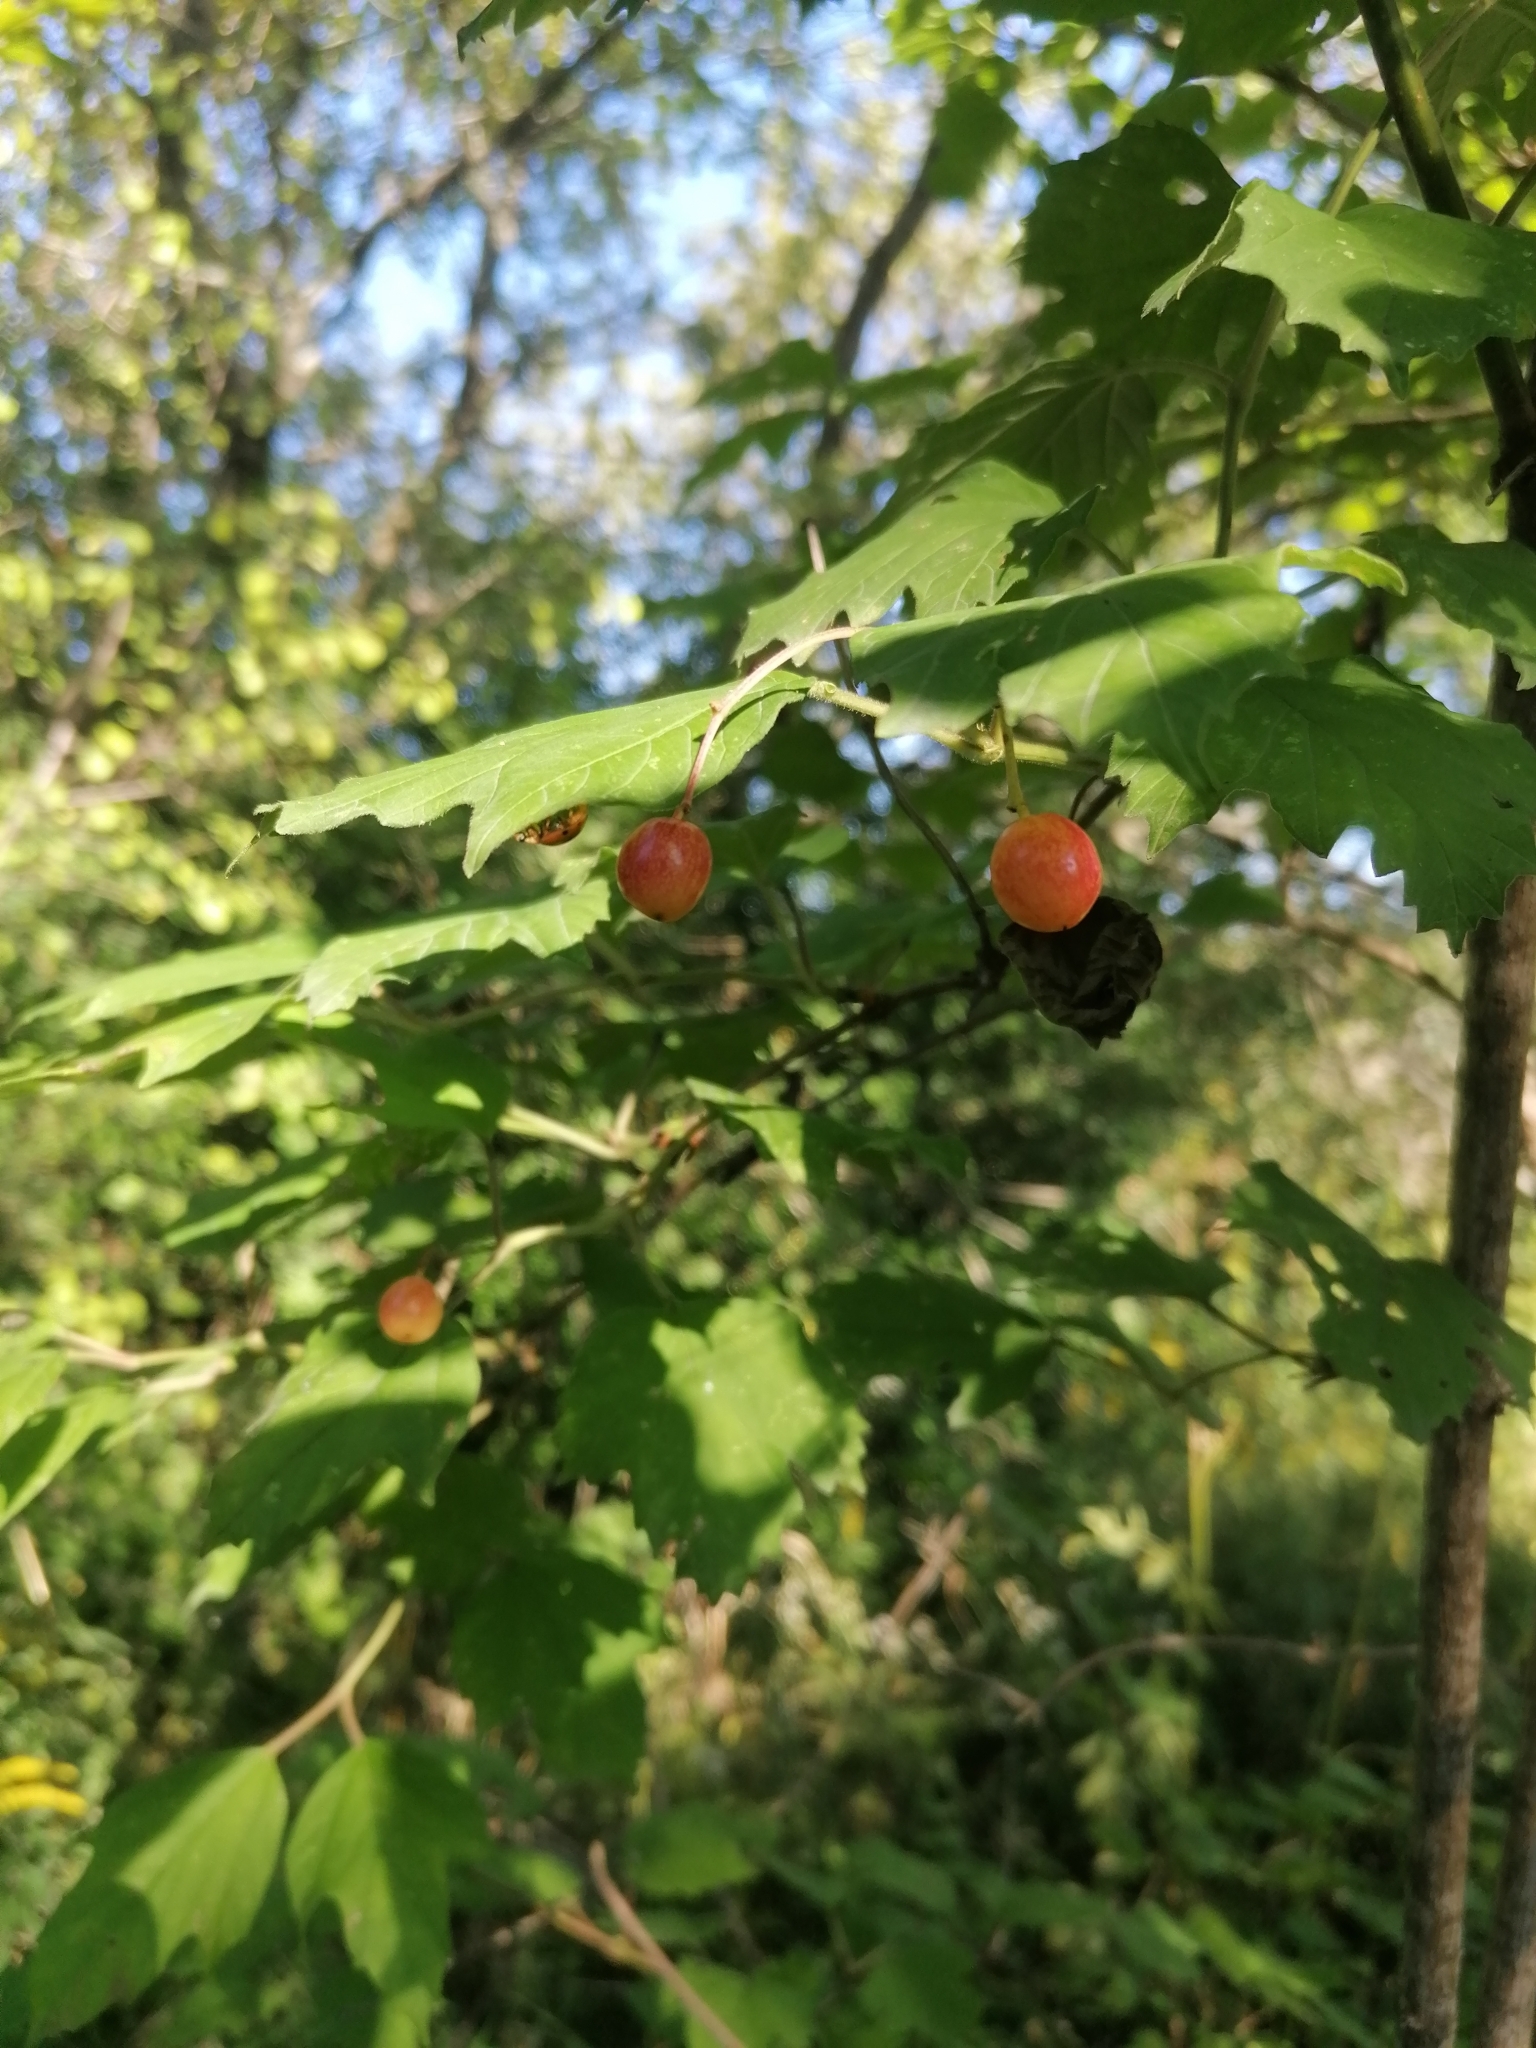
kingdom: Plantae
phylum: Tracheophyta
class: Magnoliopsida
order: Dipsacales
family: Viburnaceae
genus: Viburnum
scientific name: Viburnum opulus
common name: Guelder-rose
